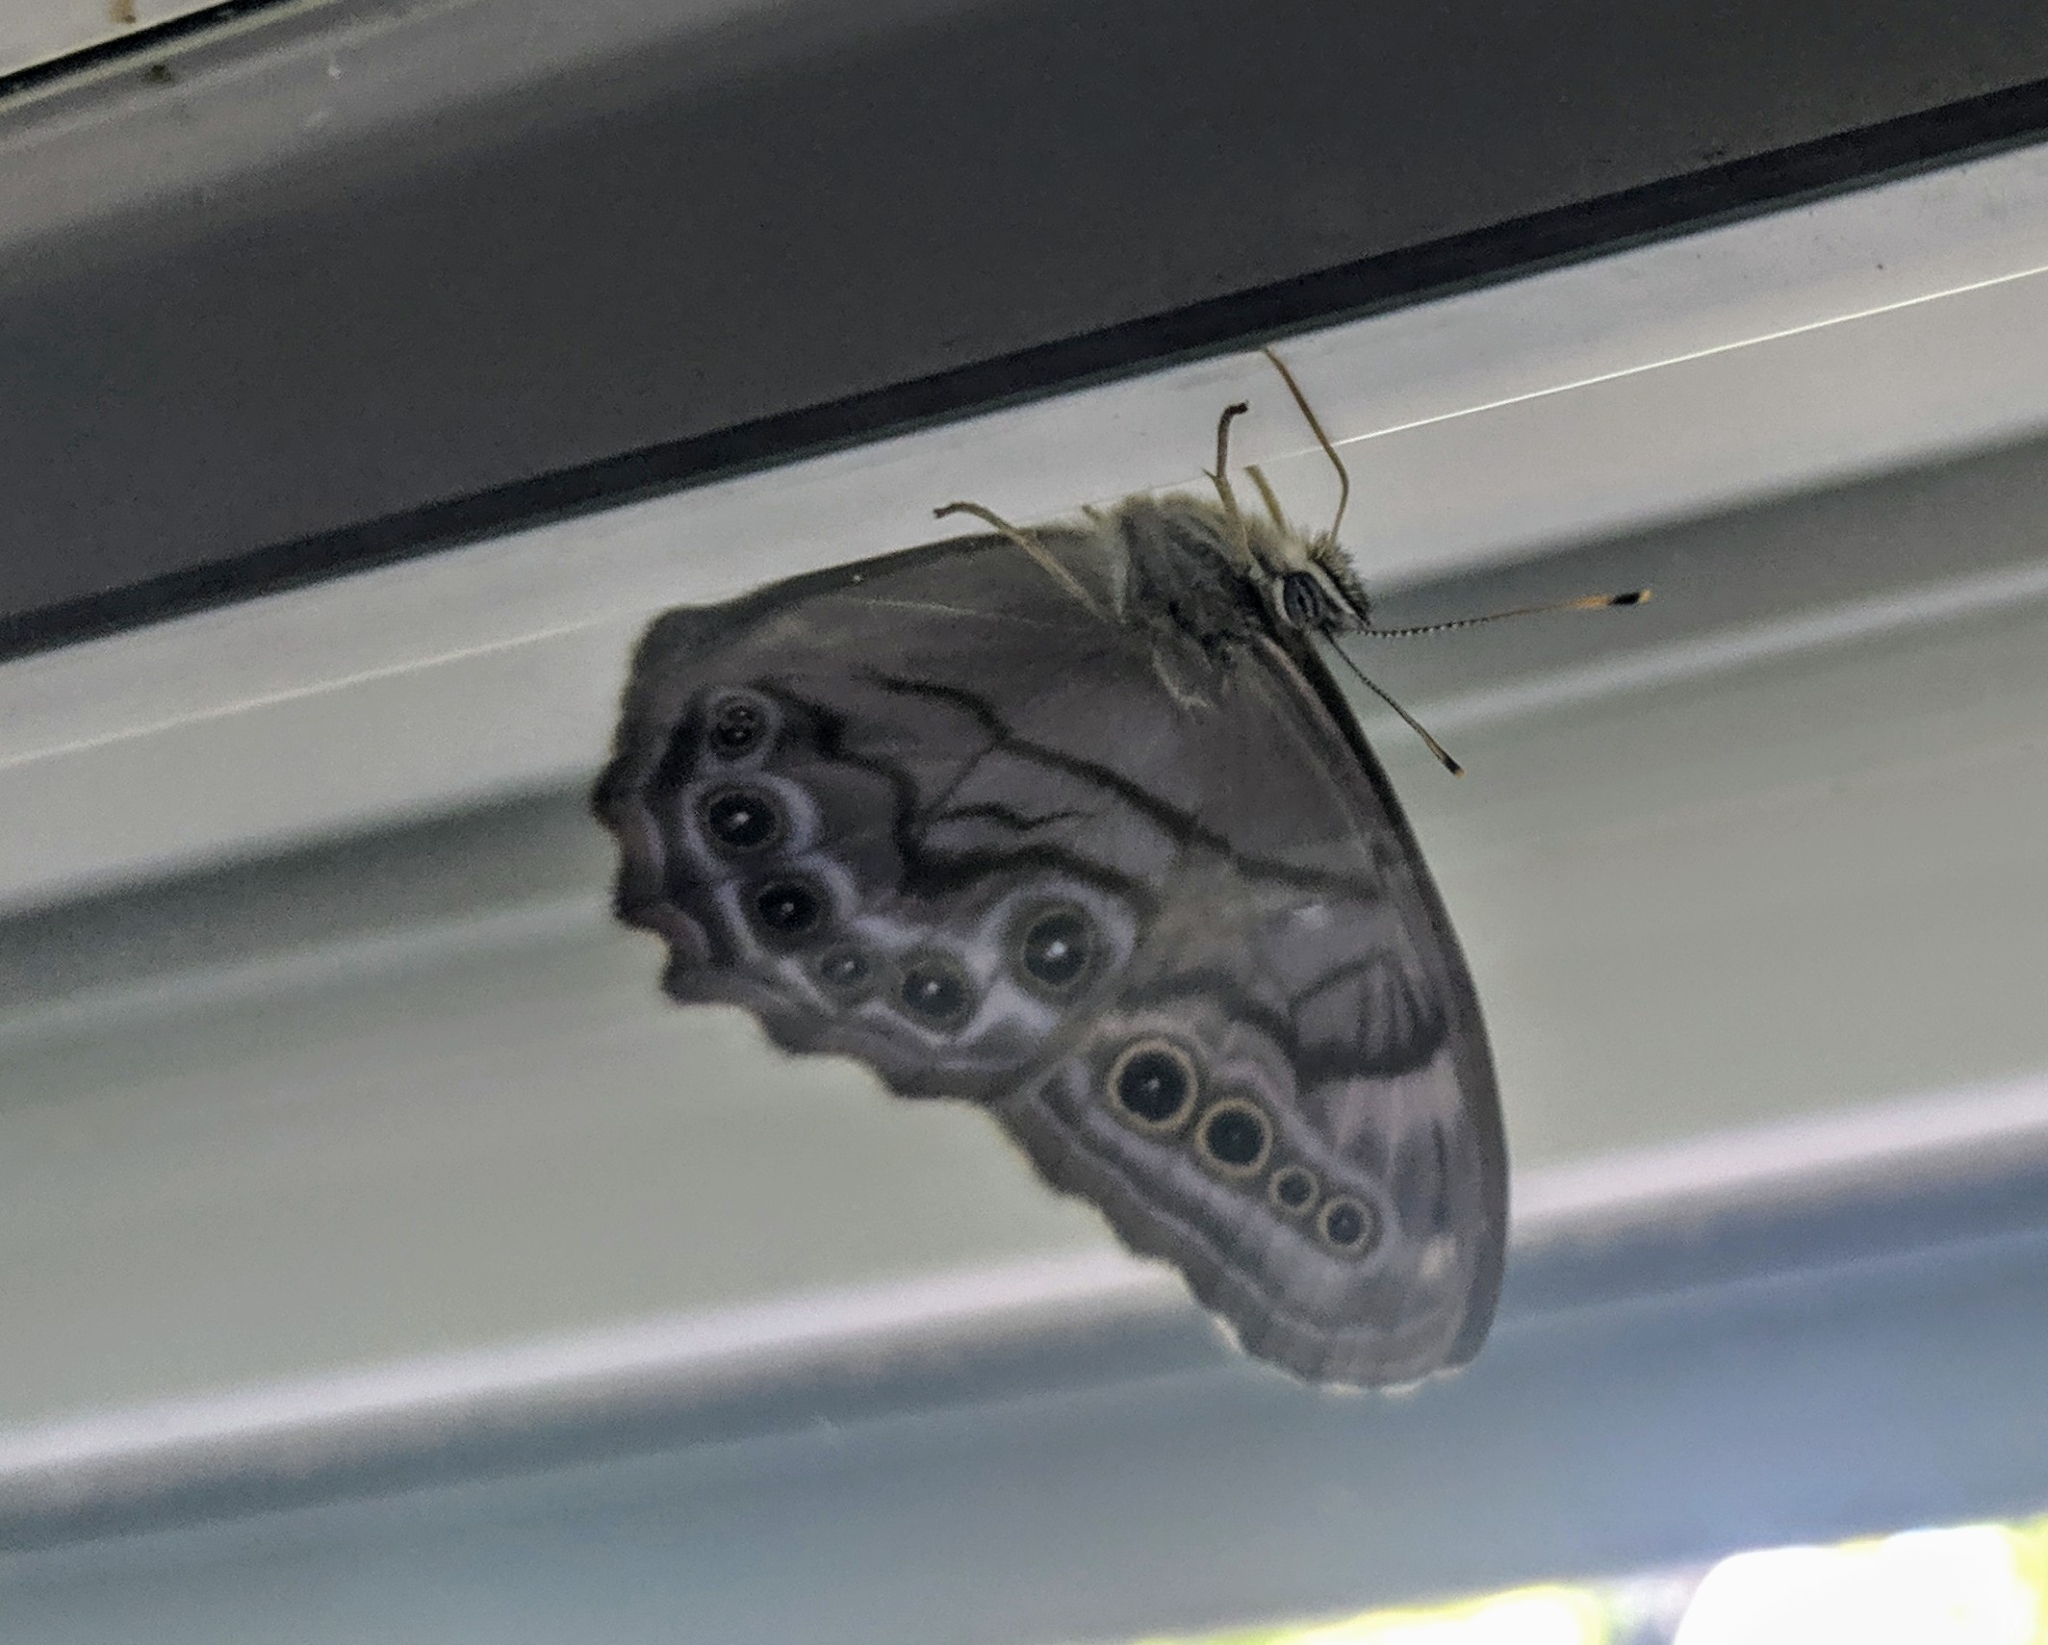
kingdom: Animalia
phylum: Arthropoda
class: Insecta
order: Lepidoptera
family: Nymphalidae
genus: Lethe
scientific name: Lethe anthedon
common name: Northern pearly-eye
